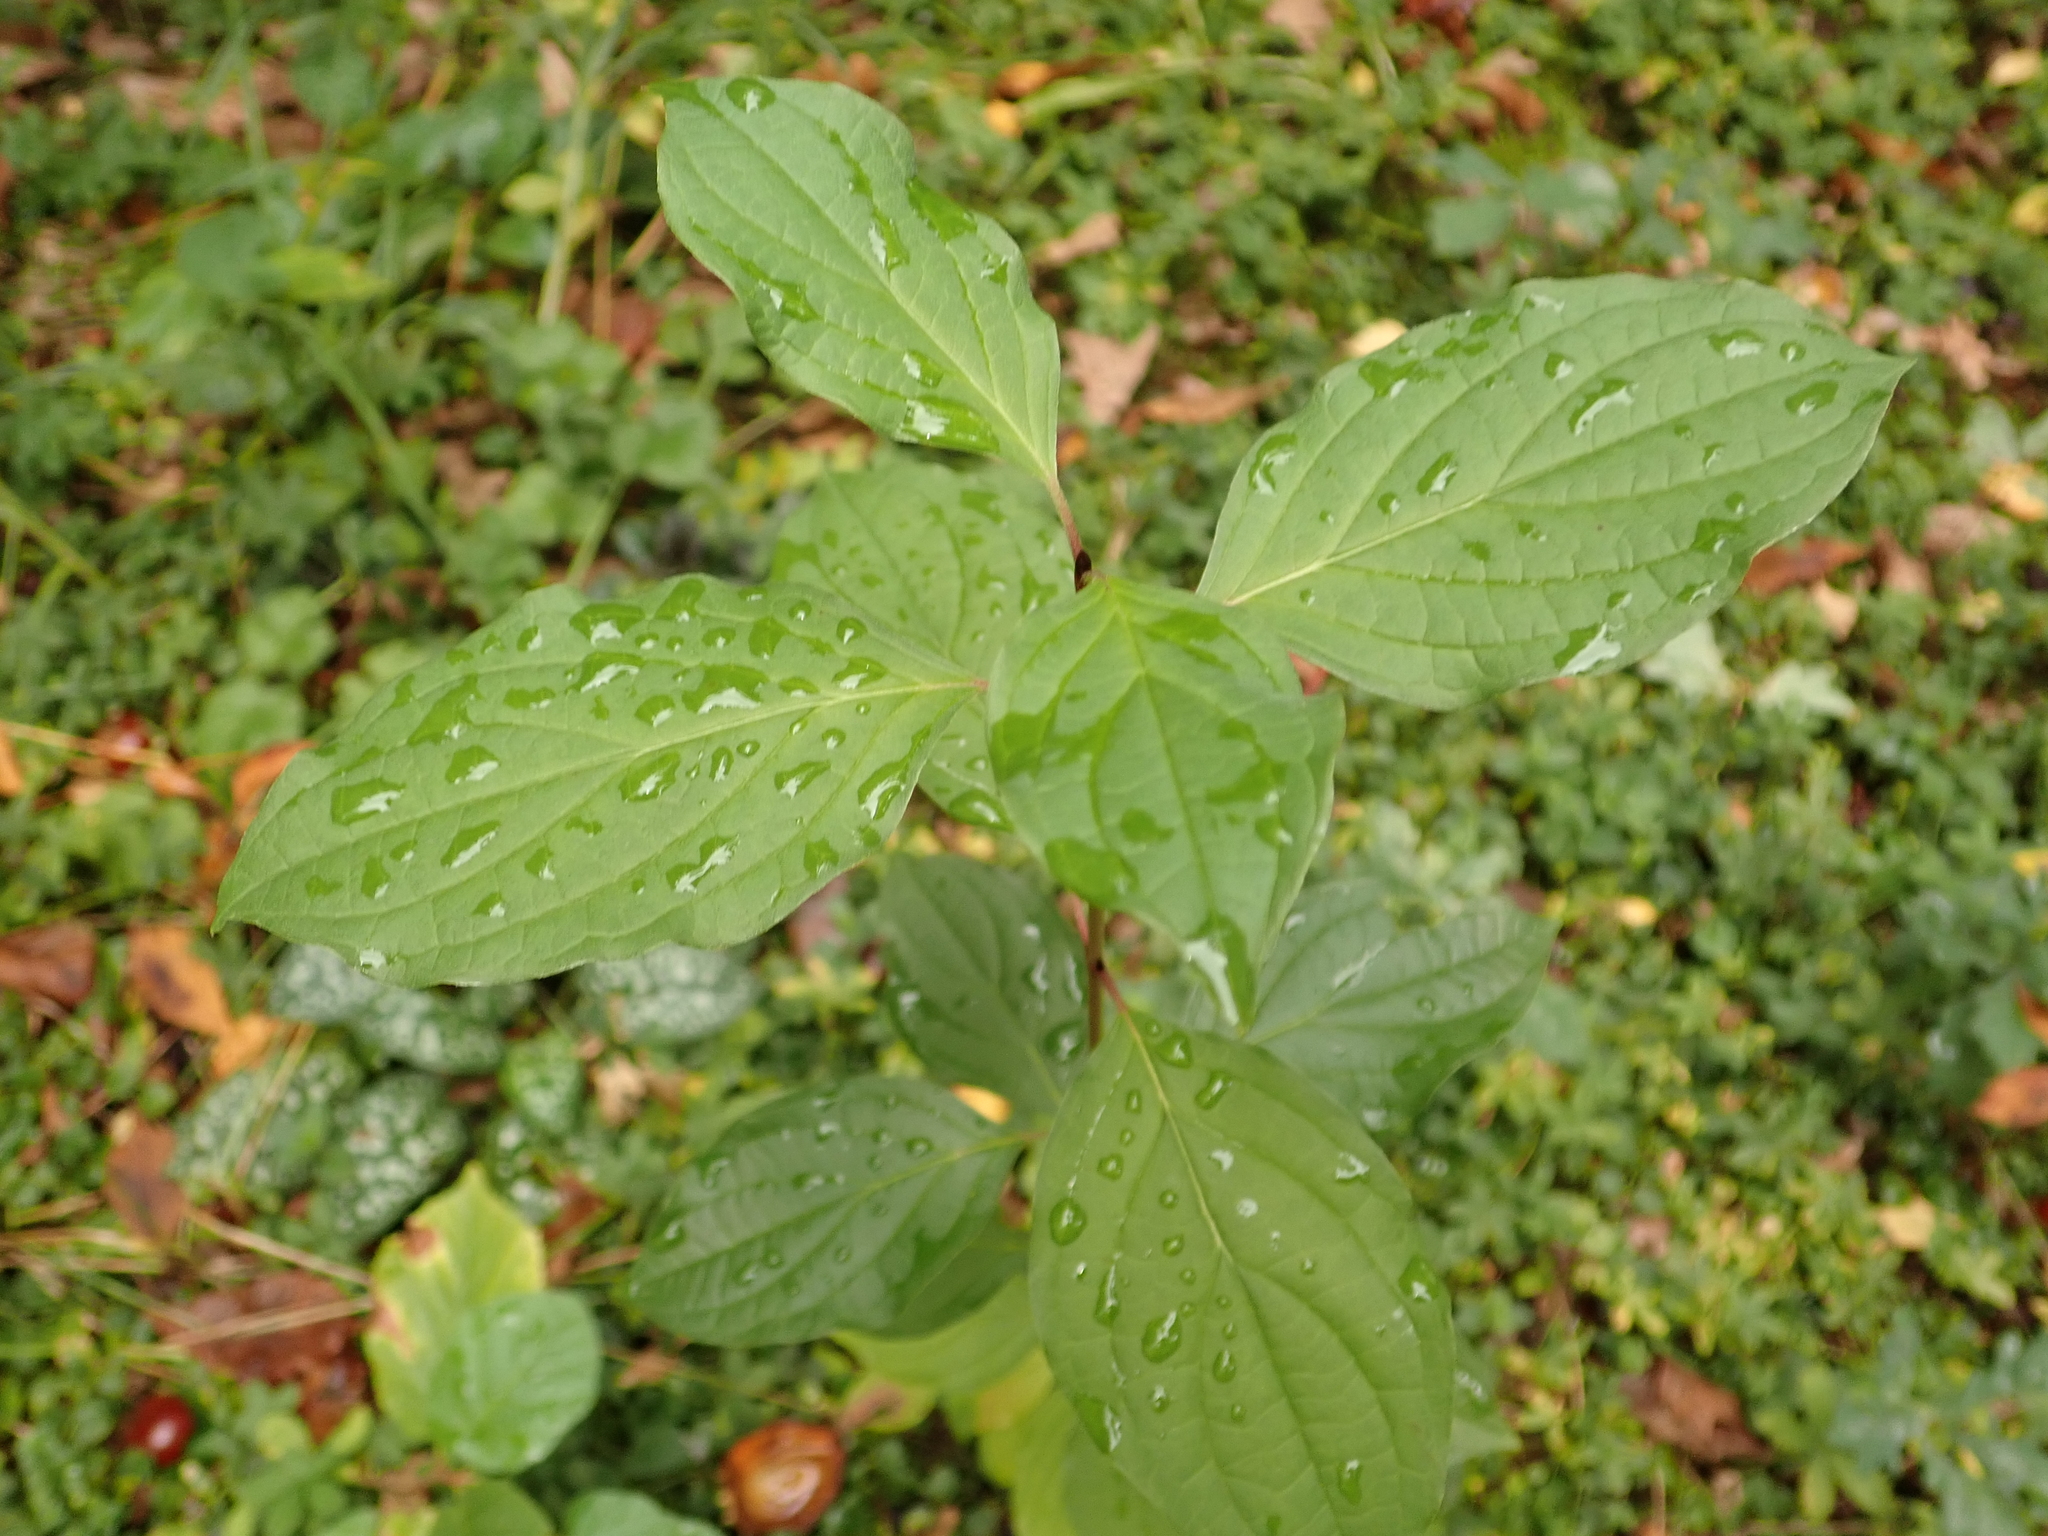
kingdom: Plantae
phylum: Tracheophyta
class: Magnoliopsida
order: Cornales
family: Cornaceae
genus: Cornus
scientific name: Cornus sanguinea
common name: Dogwood
